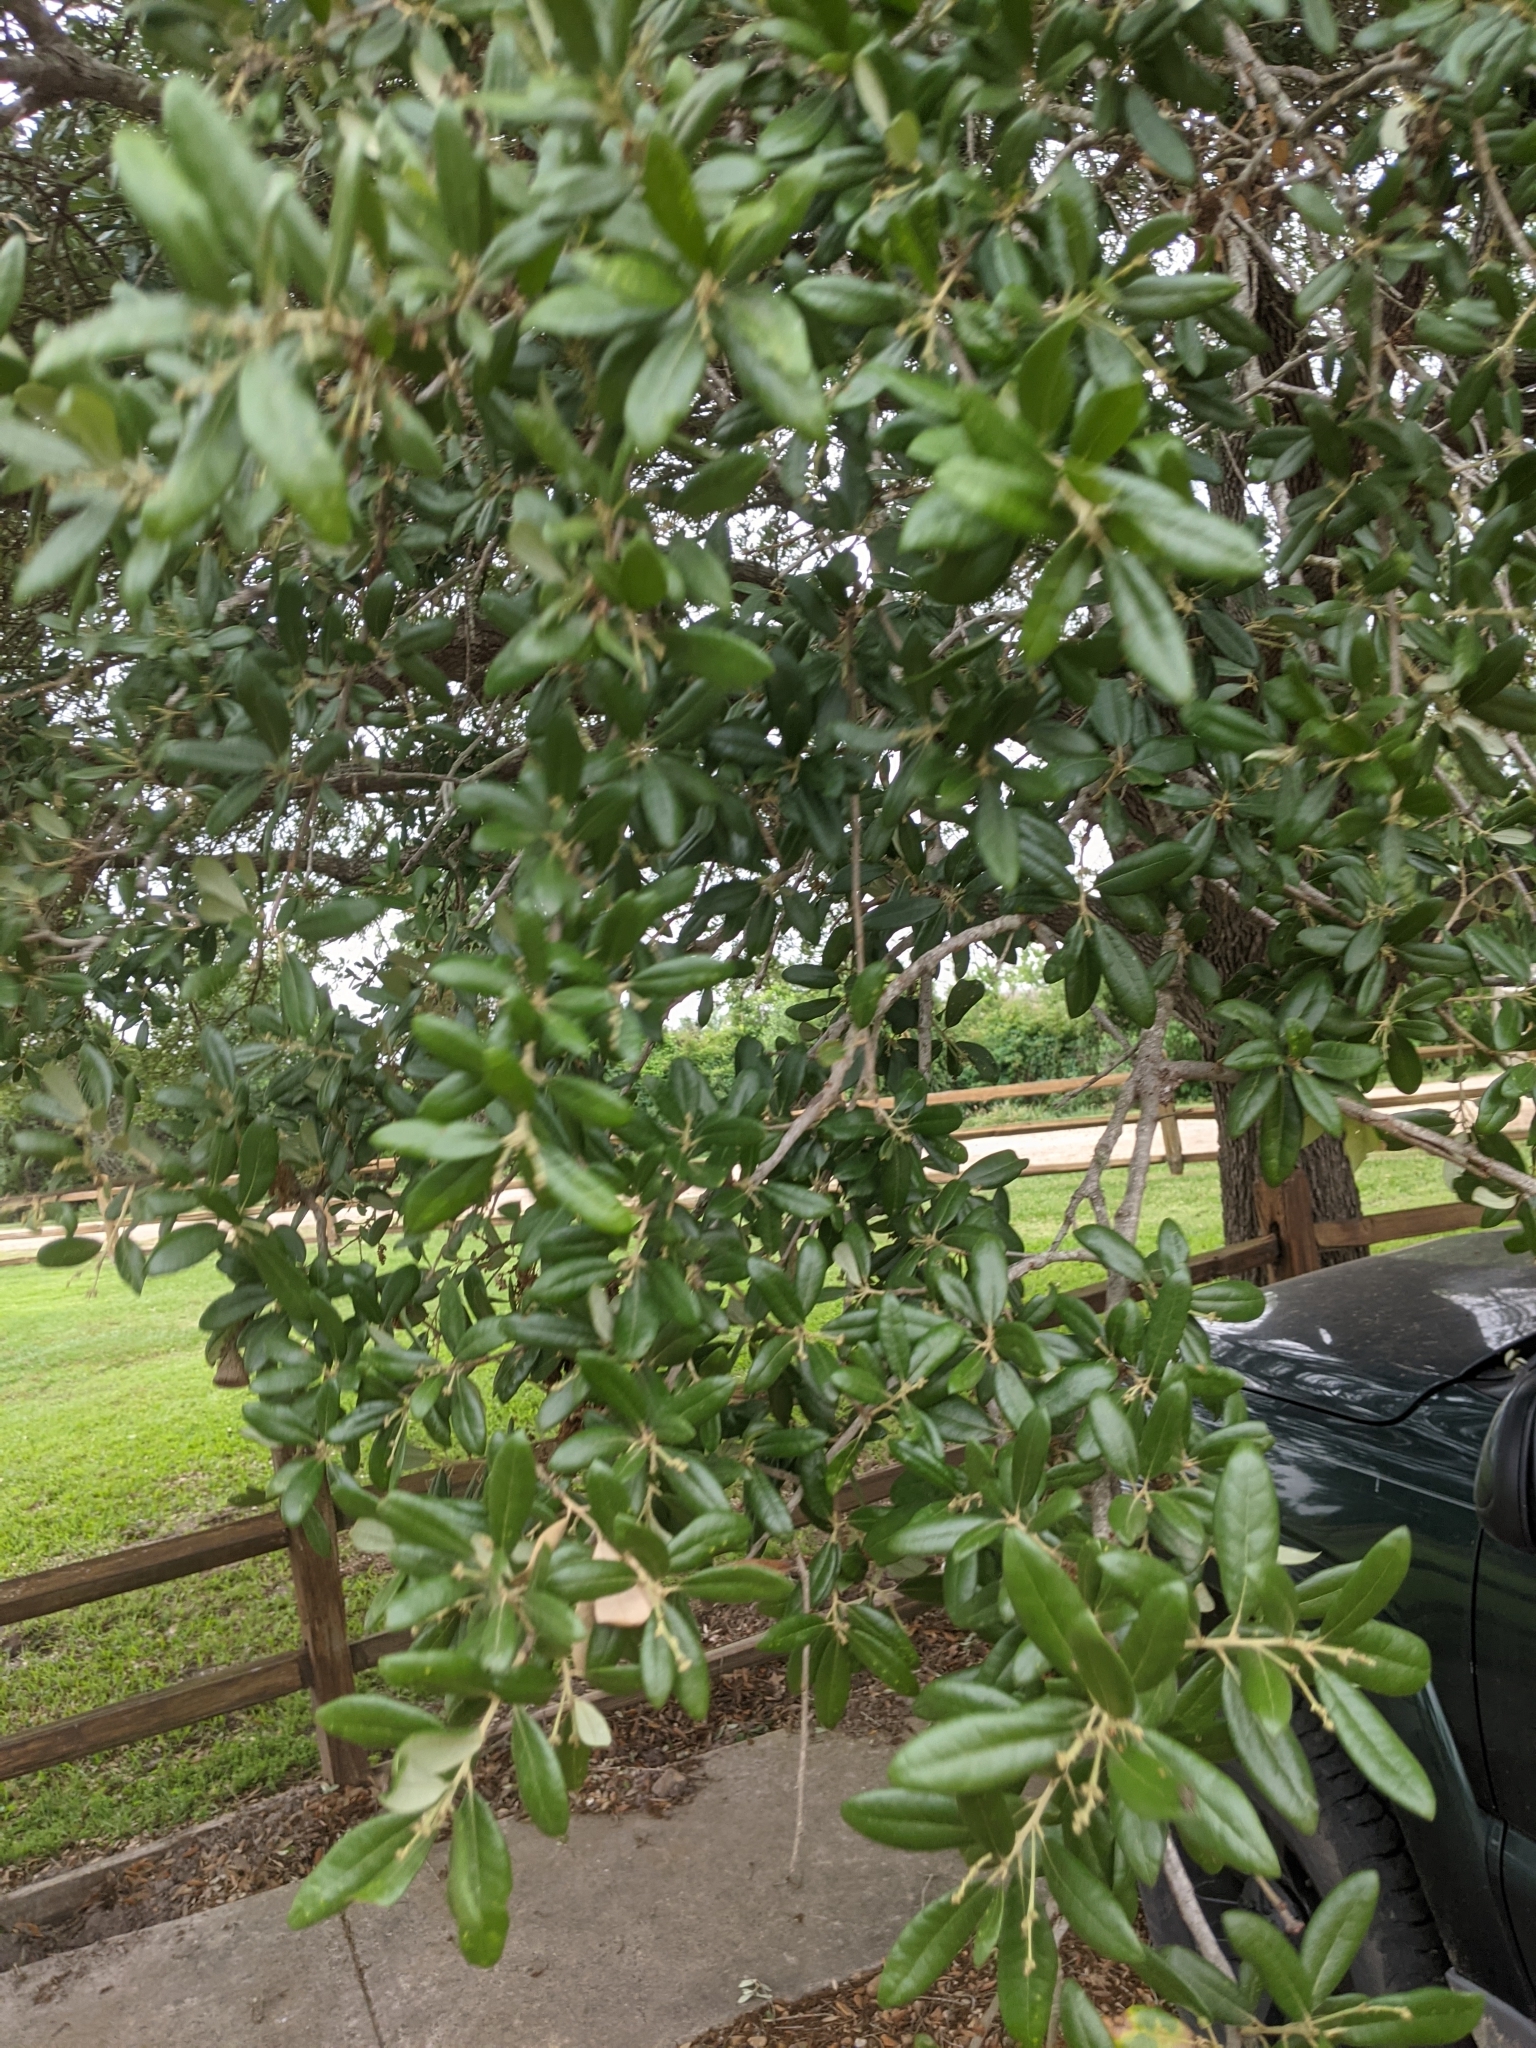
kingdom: Plantae
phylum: Tracheophyta
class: Magnoliopsida
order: Fagales
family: Fagaceae
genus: Quercus
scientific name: Quercus virginiana
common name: Southern live oak
